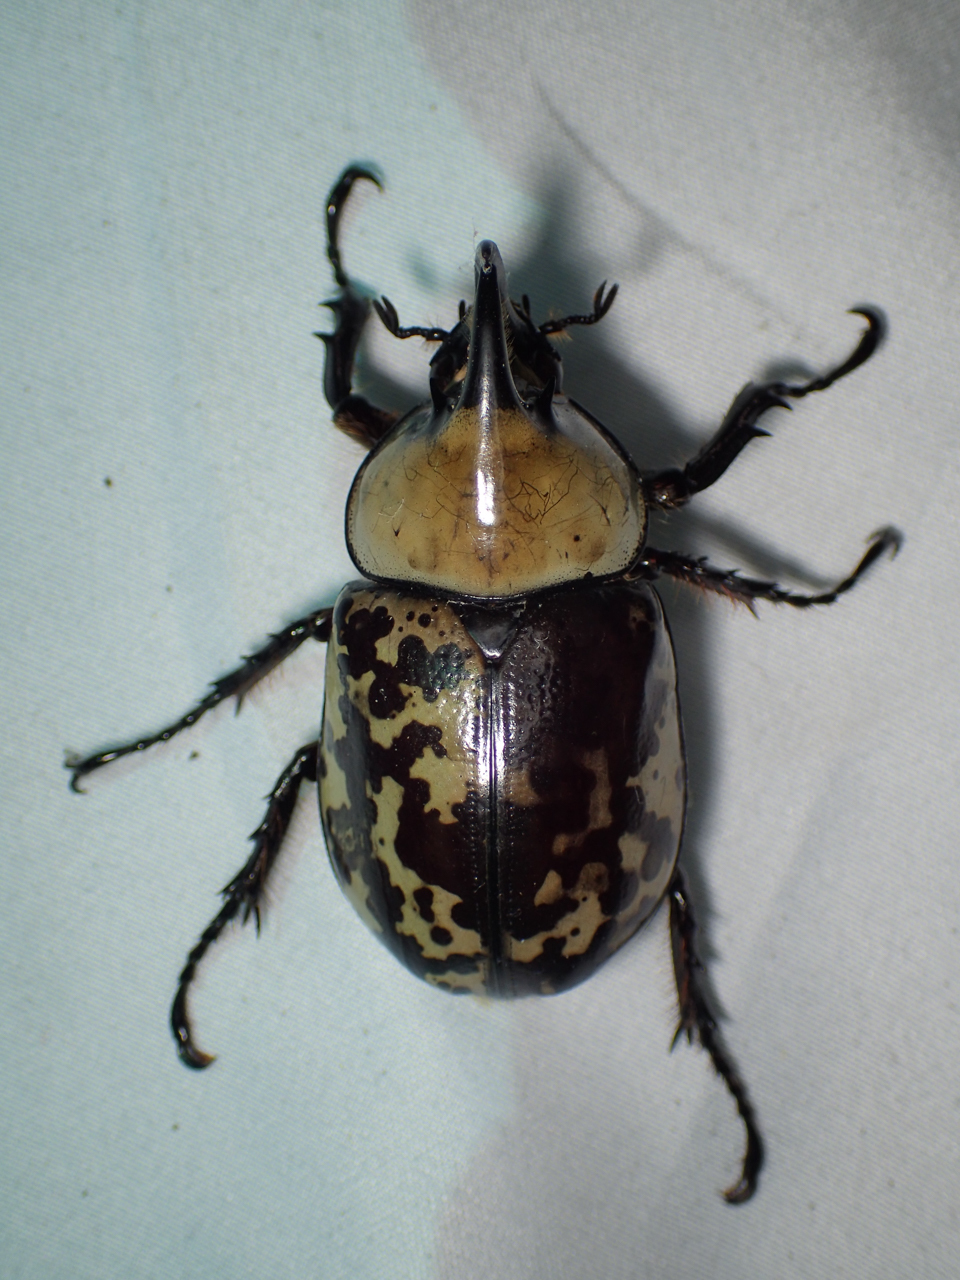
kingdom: Animalia
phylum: Arthropoda
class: Insecta
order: Coleoptera
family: Scarabaeidae
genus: Dynastes
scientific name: Dynastes tityus
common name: Eastern hercules beetle
